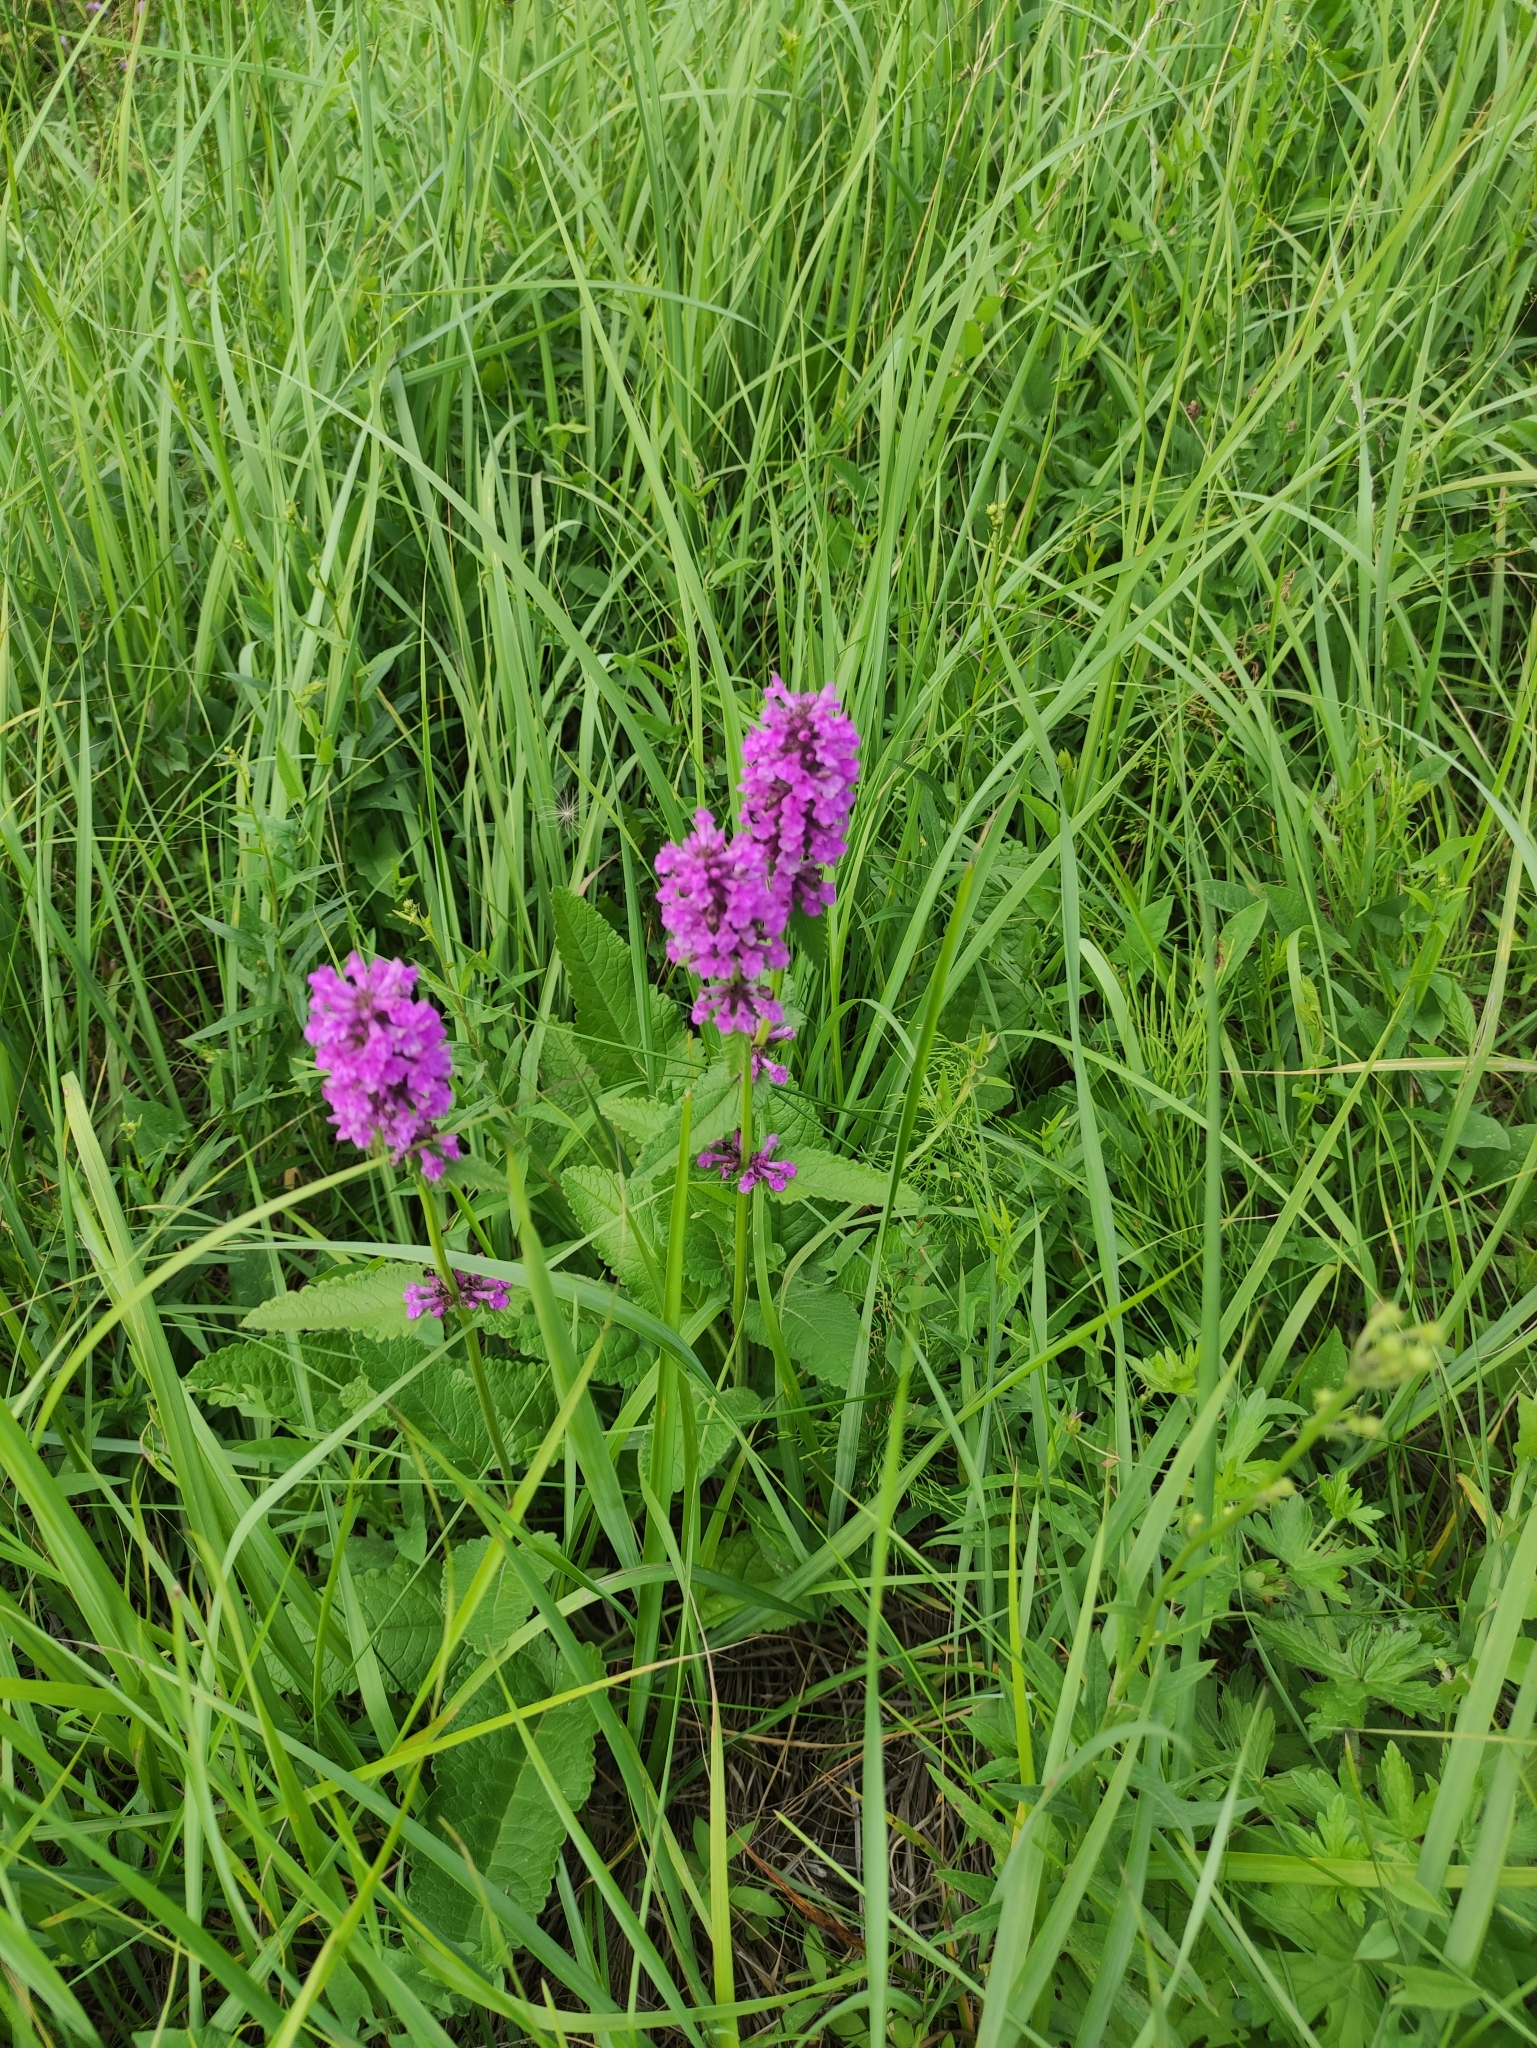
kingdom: Plantae
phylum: Tracheophyta
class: Magnoliopsida
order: Lamiales
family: Lamiaceae
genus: Betonica
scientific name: Betonica officinalis
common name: Bishop's-wort
